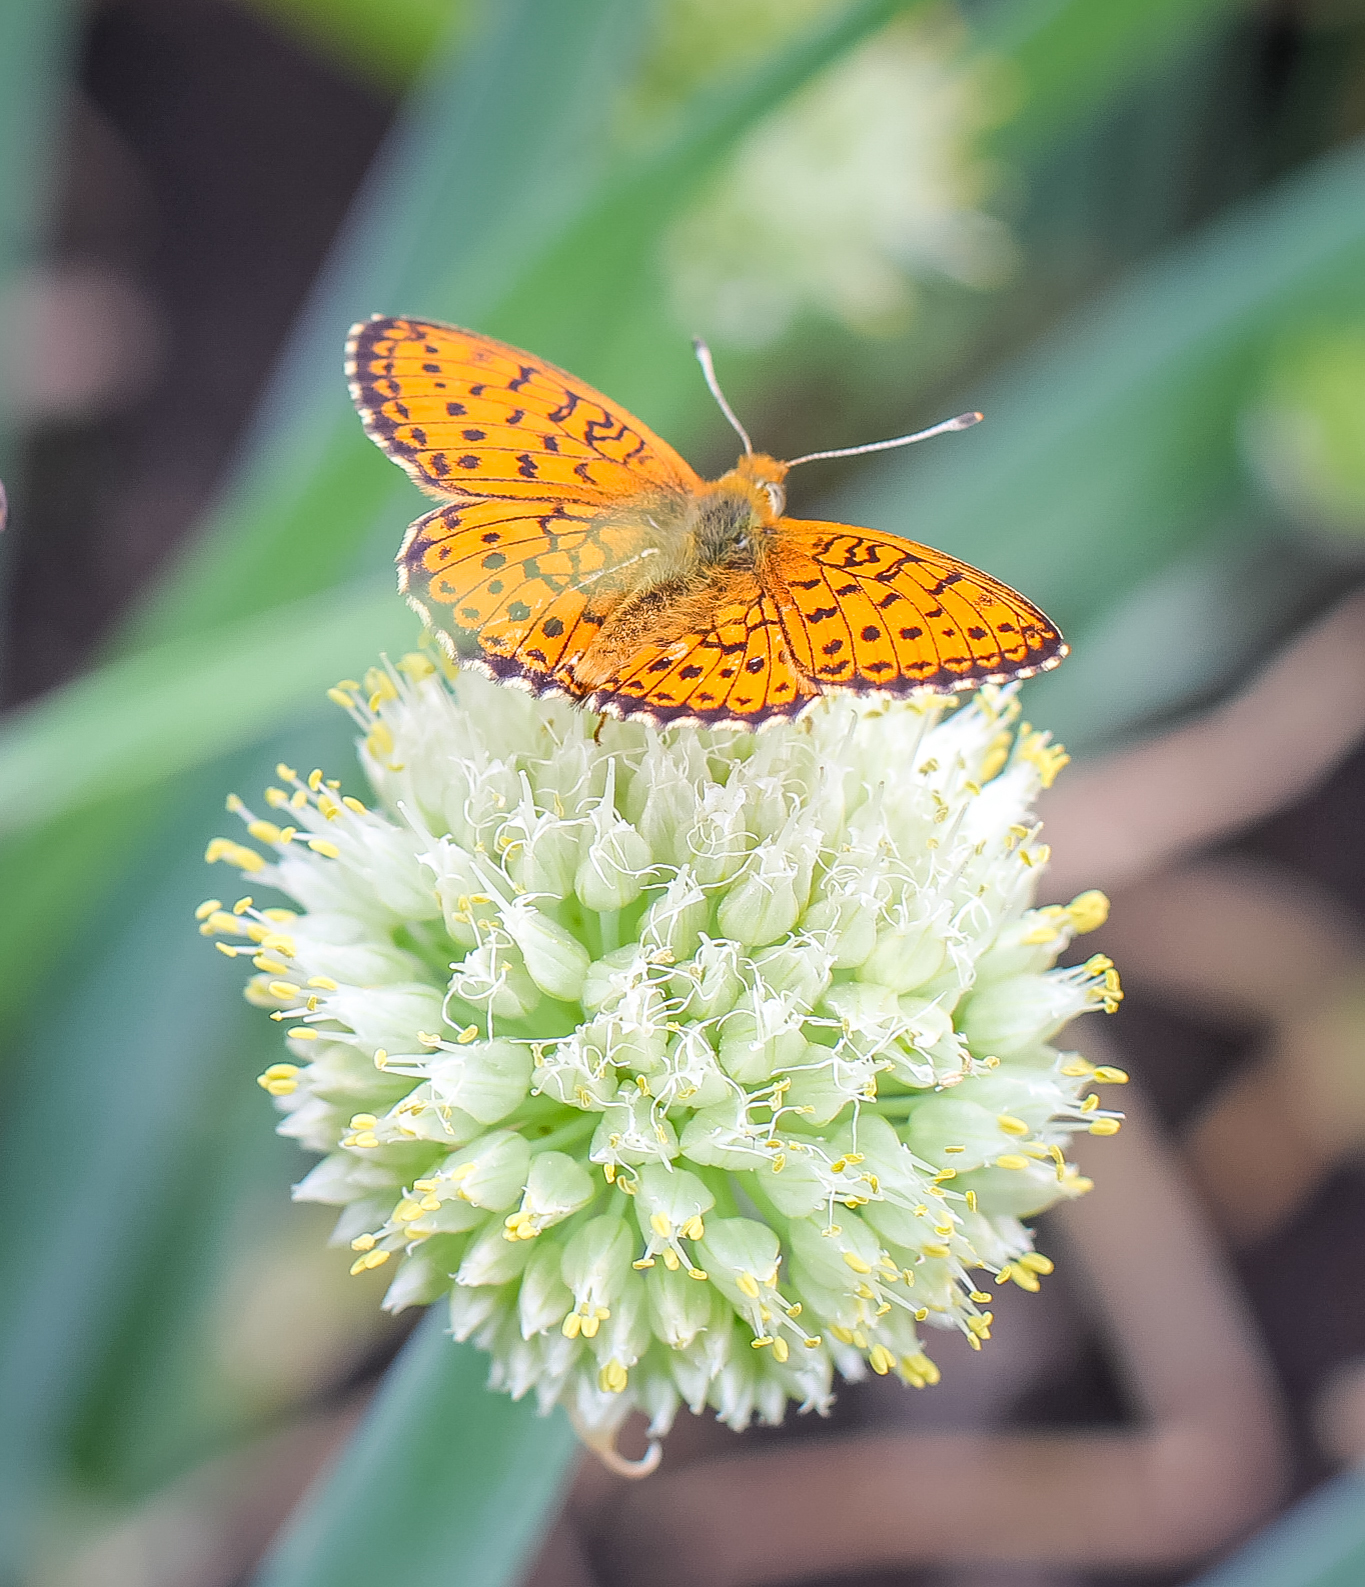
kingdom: Animalia
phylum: Arthropoda
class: Insecta
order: Lepidoptera
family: Nymphalidae
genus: Brenthis
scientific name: Brenthis ino
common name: Lesser marbled fritillary
